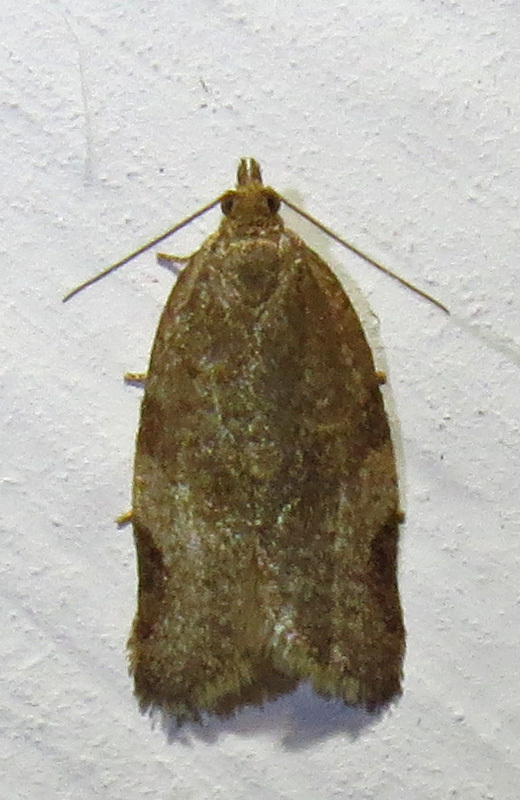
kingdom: Animalia
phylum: Arthropoda
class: Insecta
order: Lepidoptera
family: Tortricidae
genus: Clepsis
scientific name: Clepsis virescana
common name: Greenish apple moth
